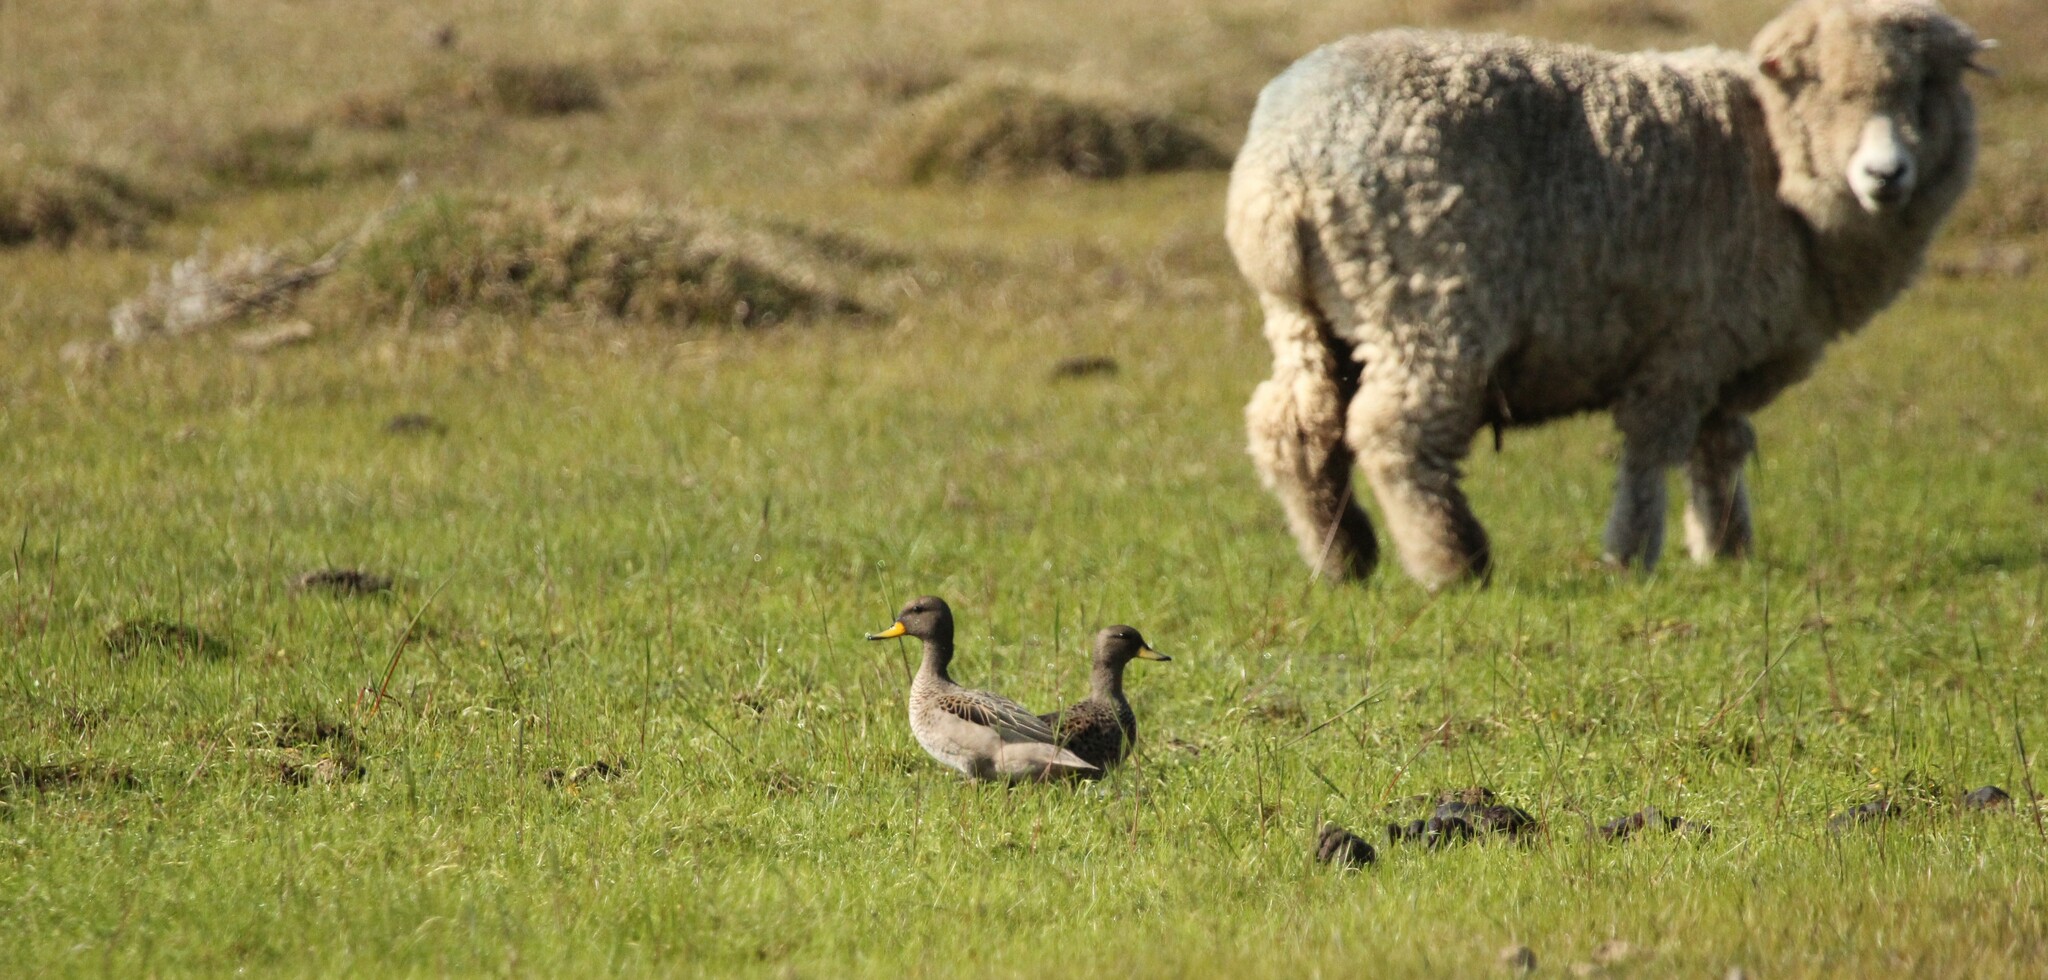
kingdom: Animalia
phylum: Chordata
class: Aves
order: Anseriformes
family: Anatidae
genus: Anas
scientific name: Anas flavirostris
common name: Yellow-billed teal
